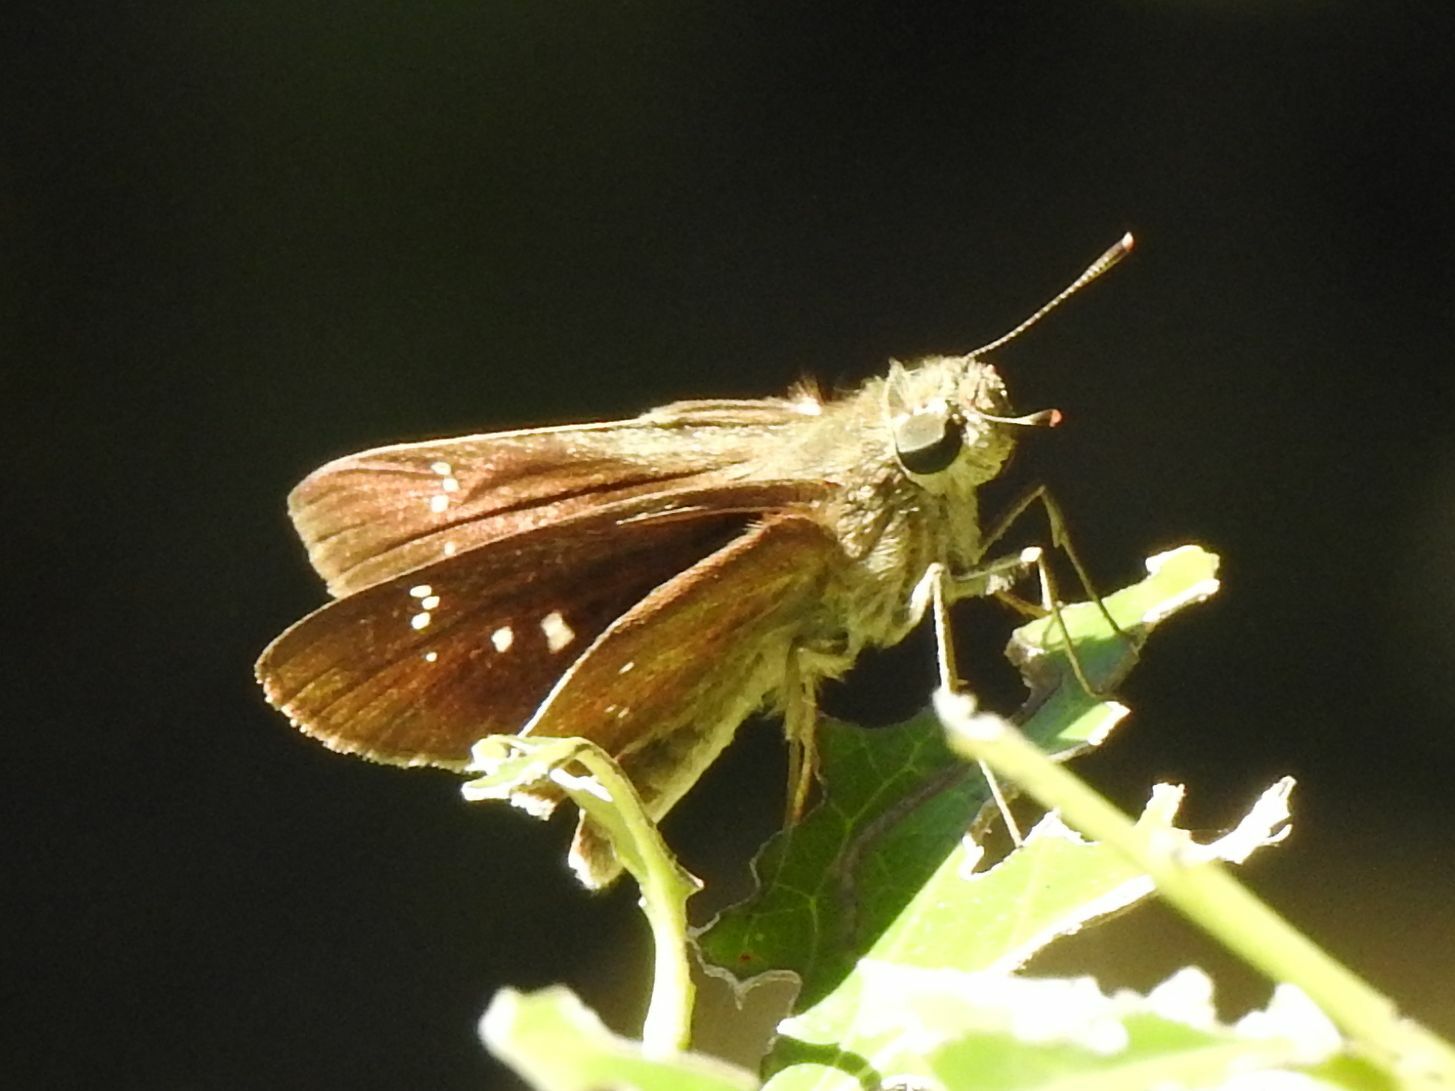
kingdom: Animalia
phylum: Arthropoda
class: Insecta
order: Lepidoptera
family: Hesperiidae
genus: Baoris
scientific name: Baoris fatuellus
